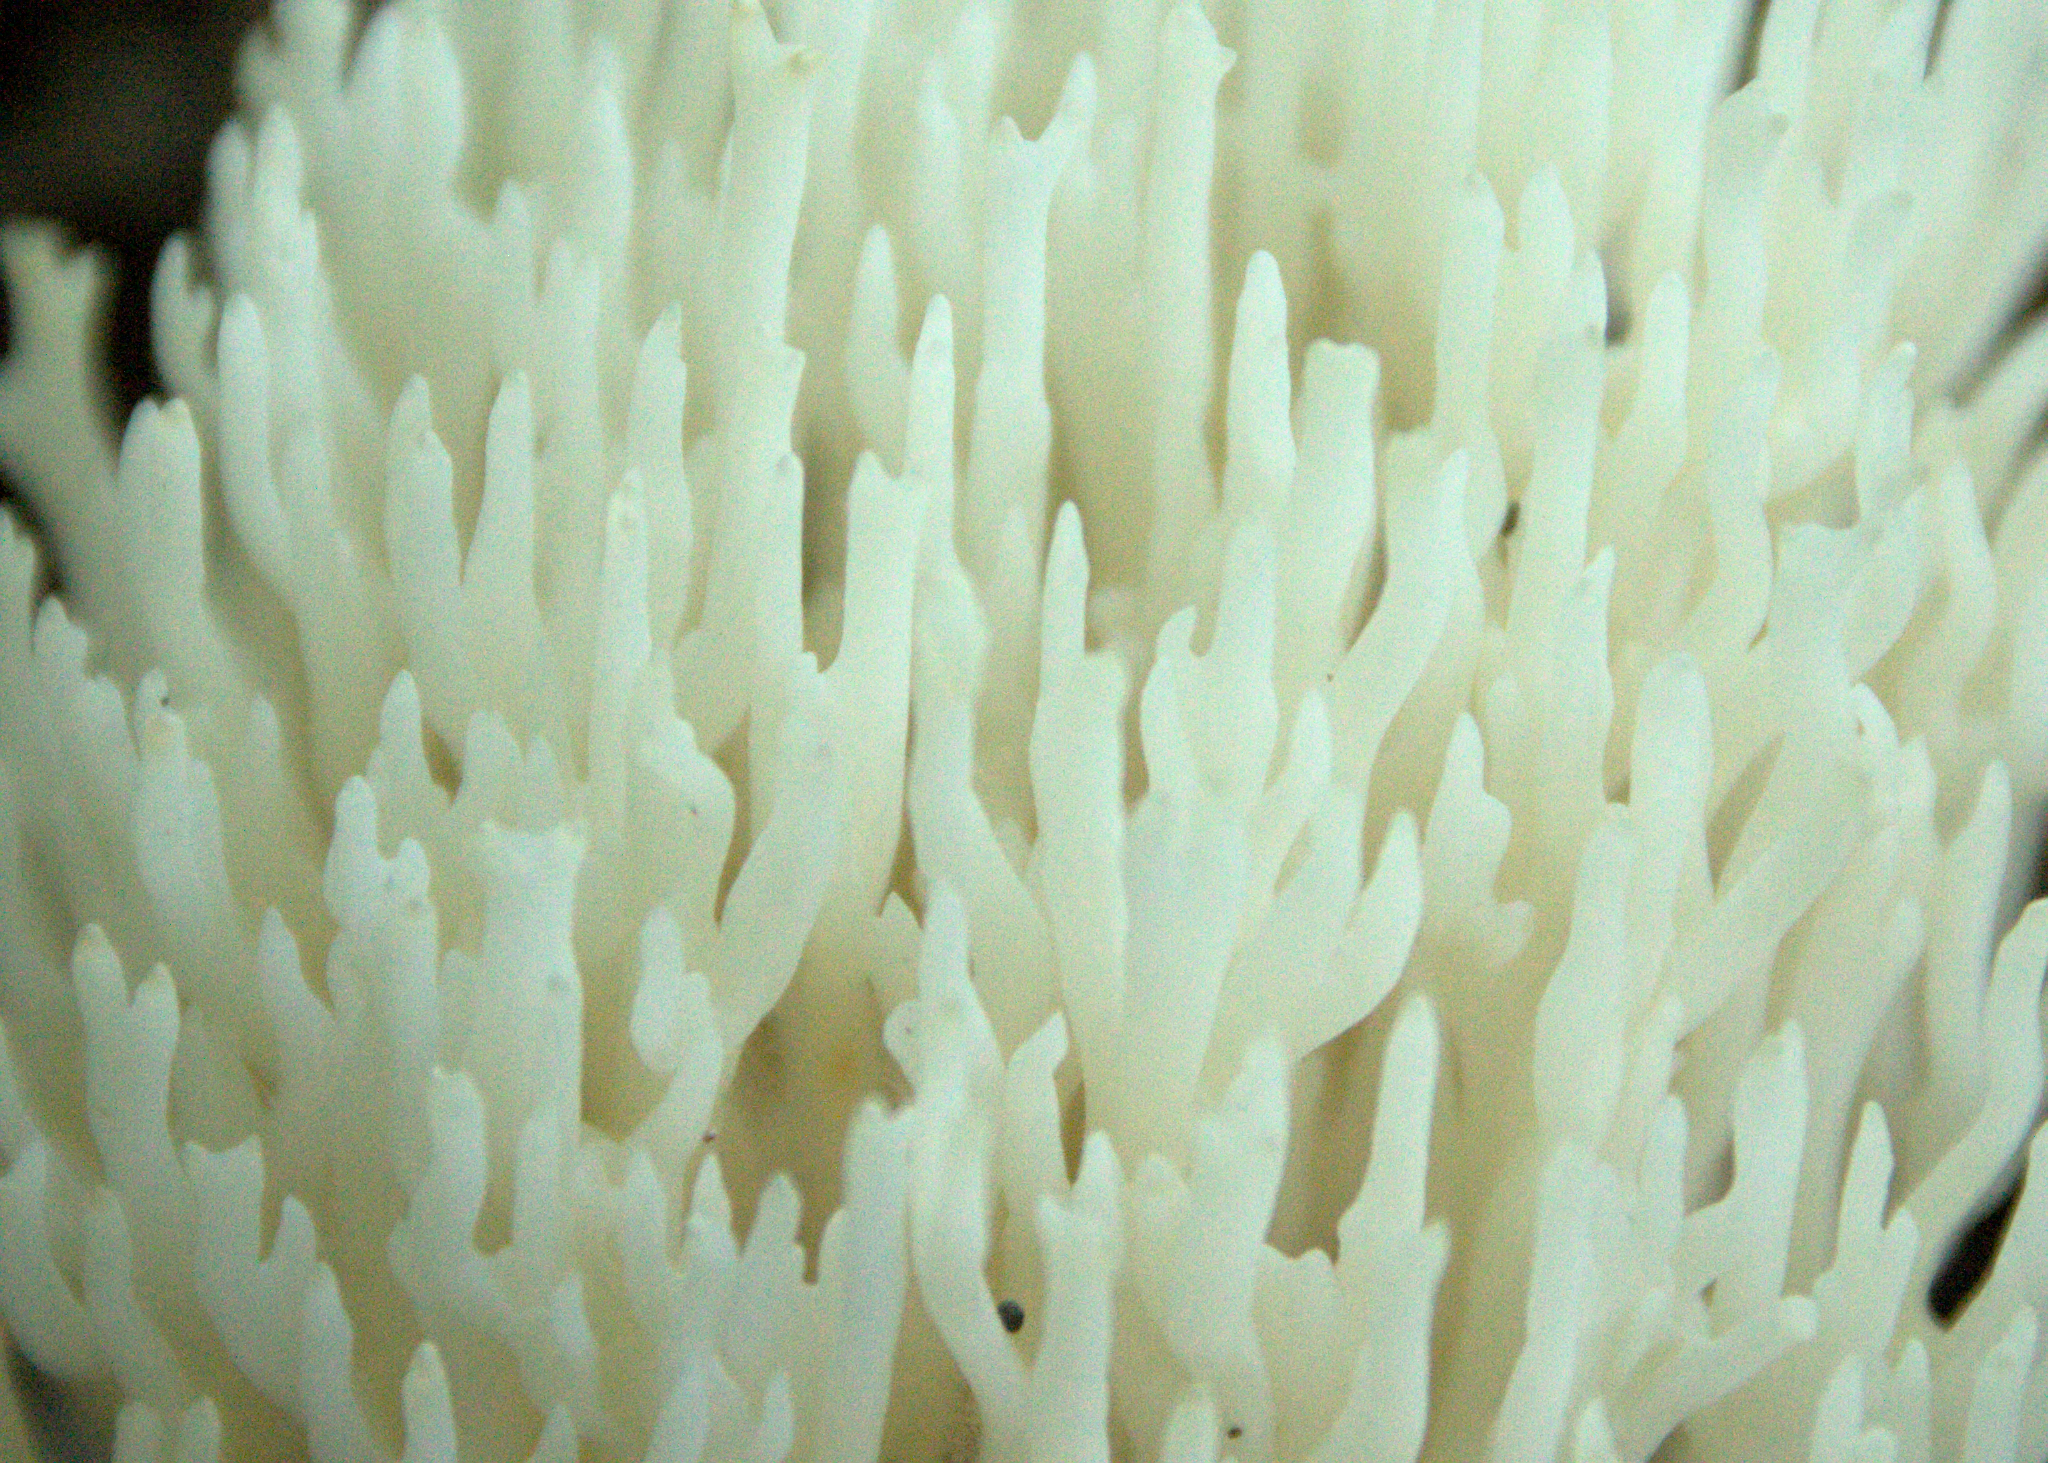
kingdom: Fungi
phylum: Basidiomycota
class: Agaricomycetes
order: Agaricales
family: Clavariaceae
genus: Ramariopsis
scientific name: Ramariopsis kunzei
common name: Ivory coral
